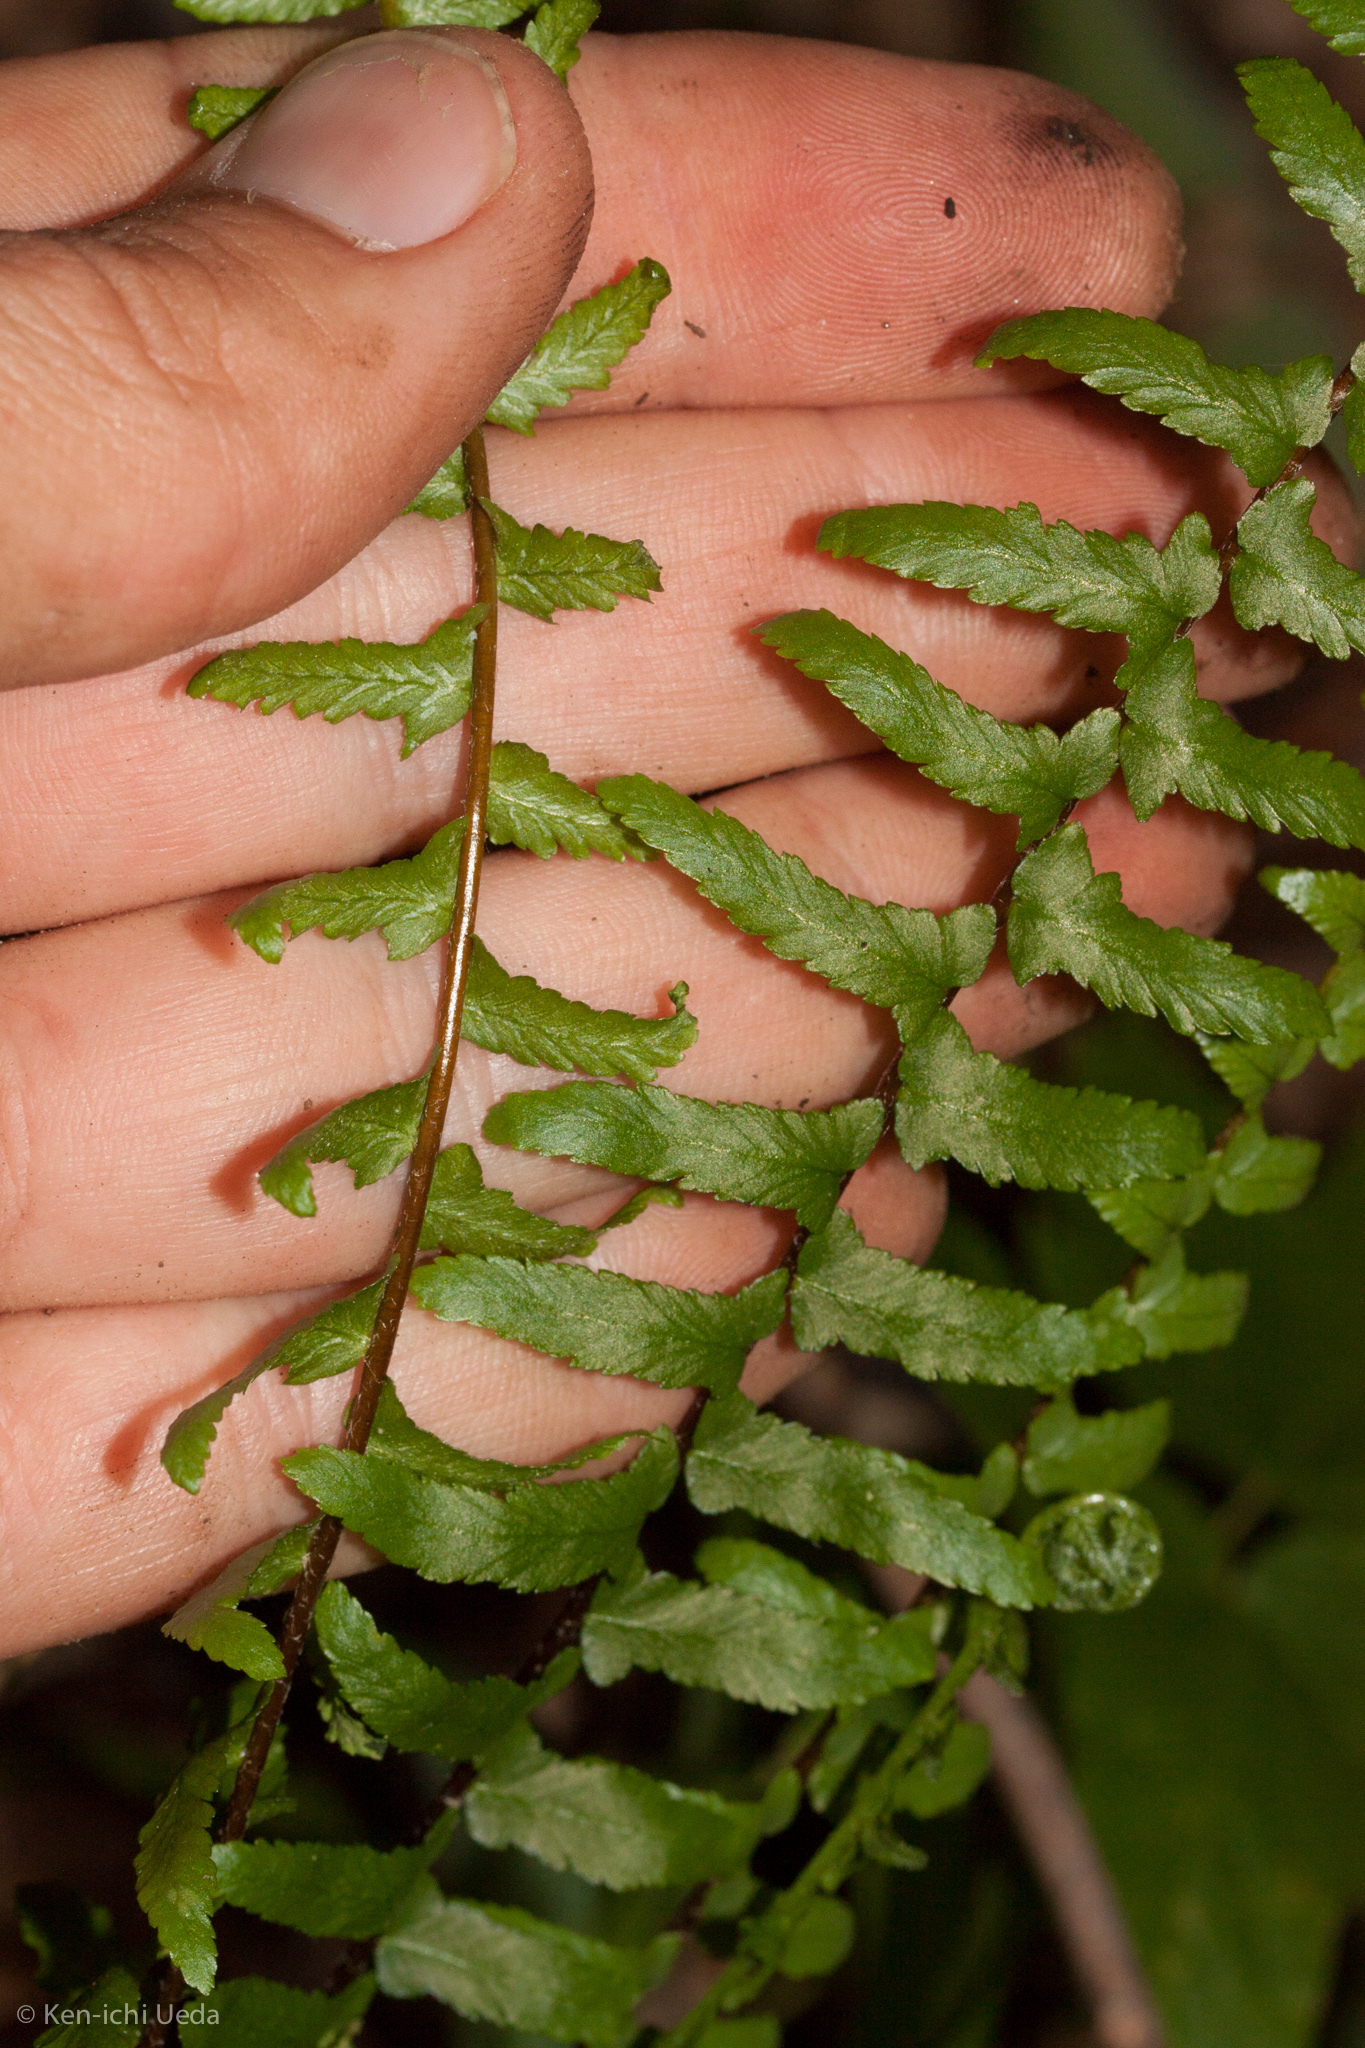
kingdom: Plantae
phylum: Tracheophyta
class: Polypodiopsida
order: Polypodiales
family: Aspleniaceae
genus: Asplenium
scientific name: Asplenium platyneuron
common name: Ebony spleenwort
